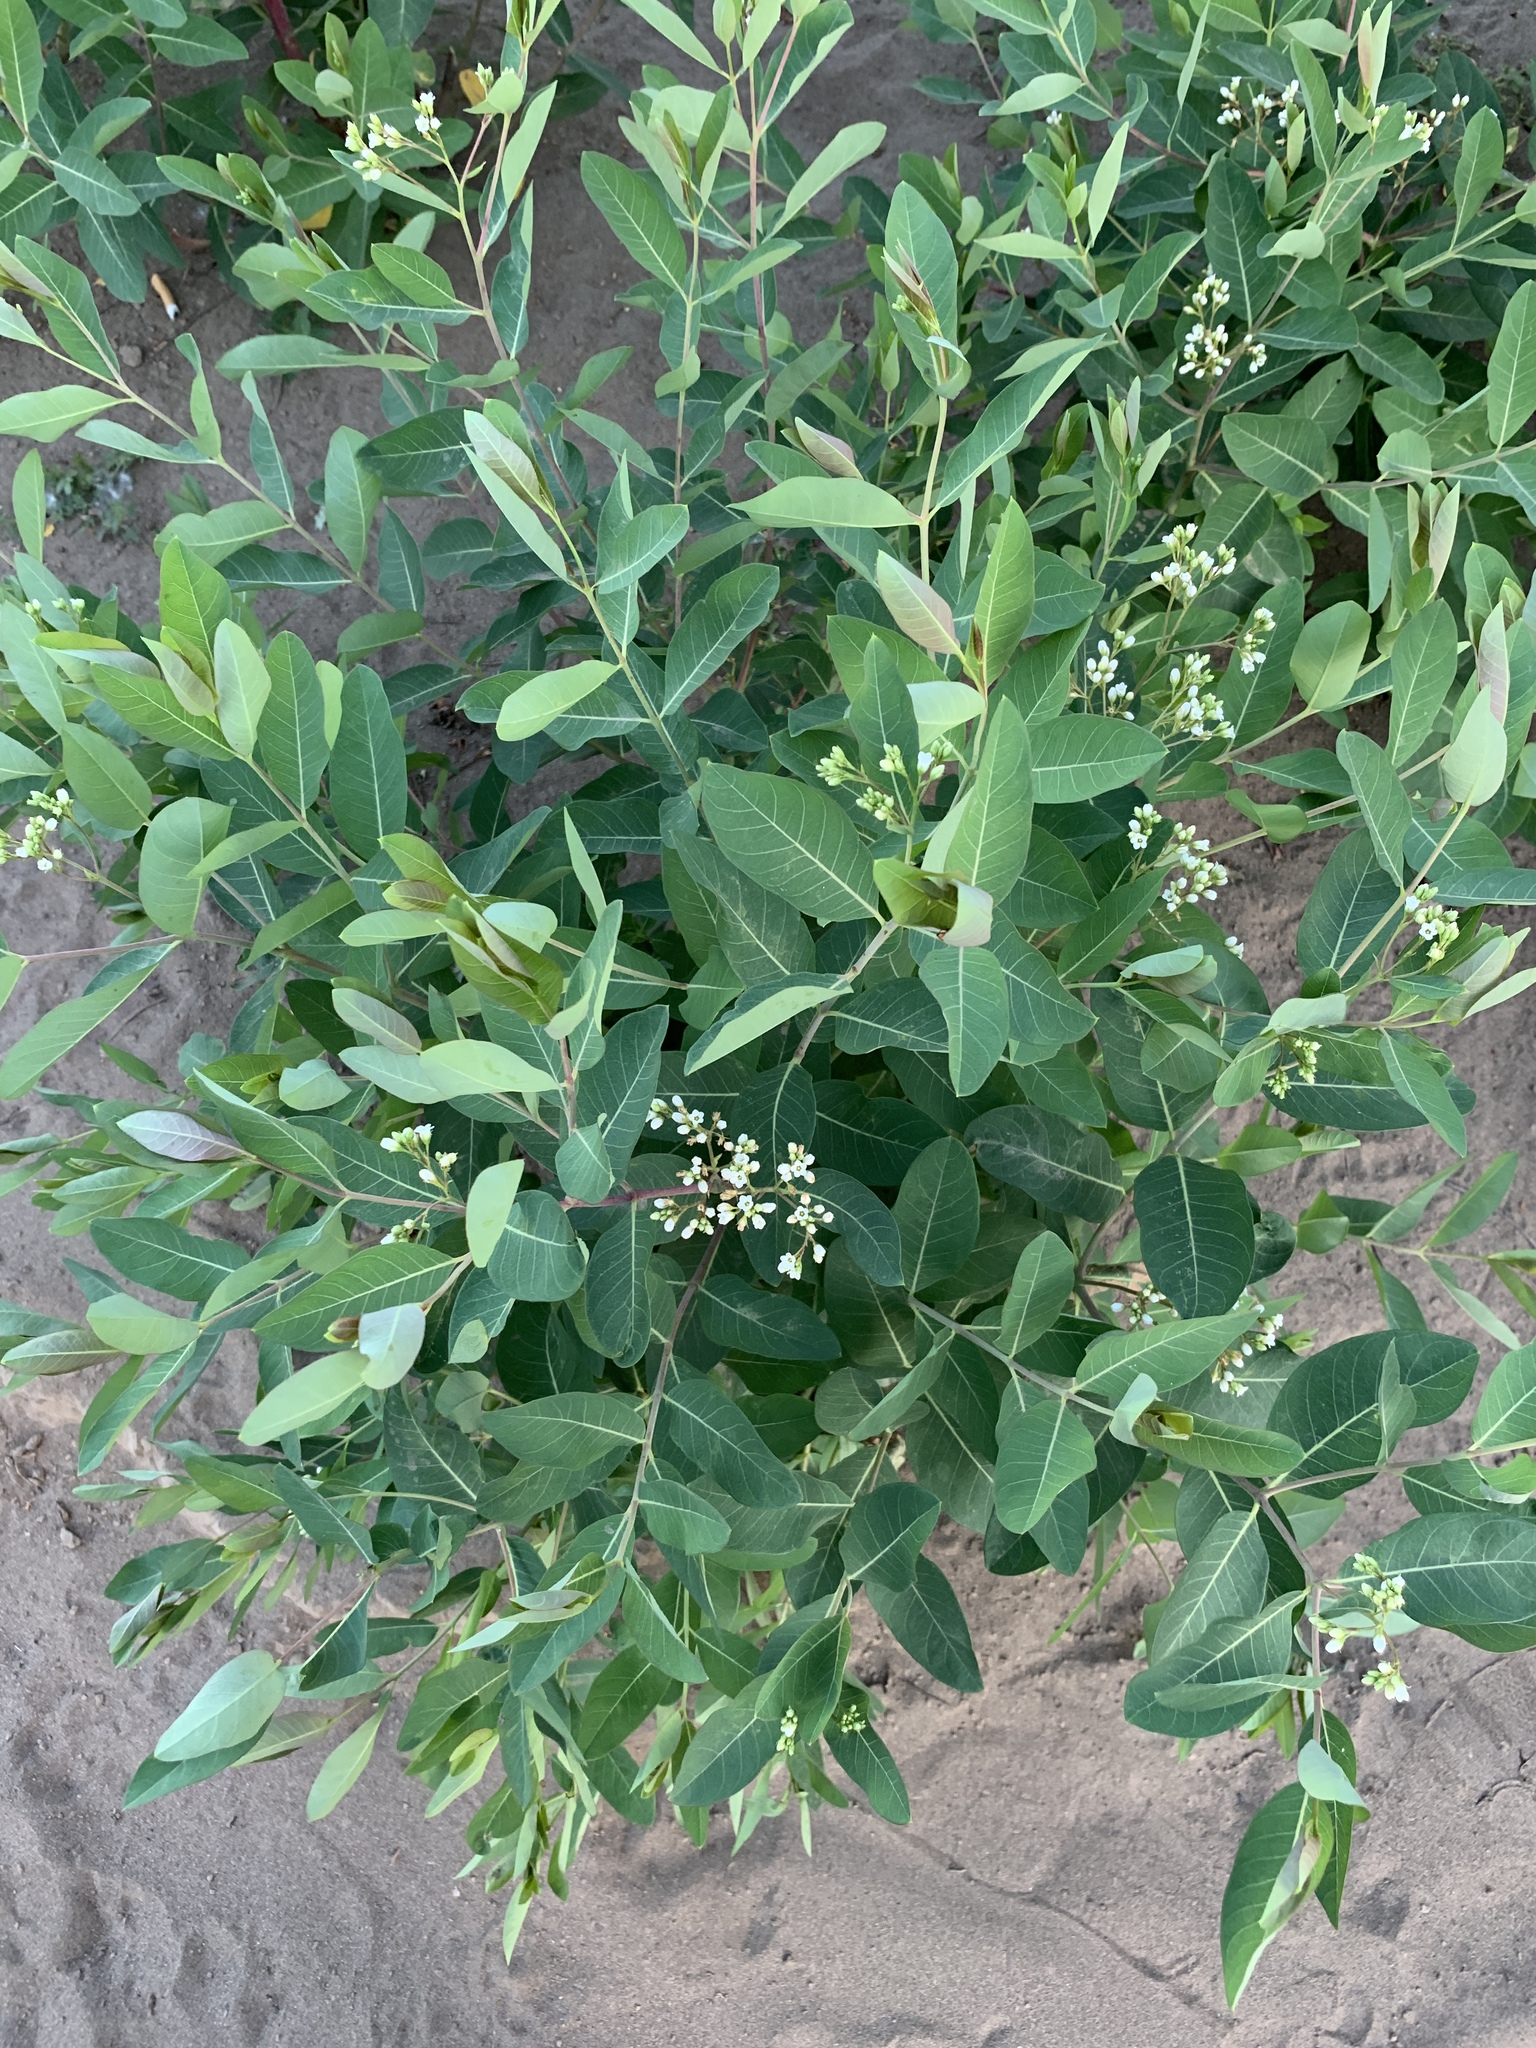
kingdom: Plantae
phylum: Tracheophyta
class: Magnoliopsida
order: Gentianales
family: Apocynaceae
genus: Apocynum
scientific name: Apocynum cannabinum
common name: Hemp dogbane
